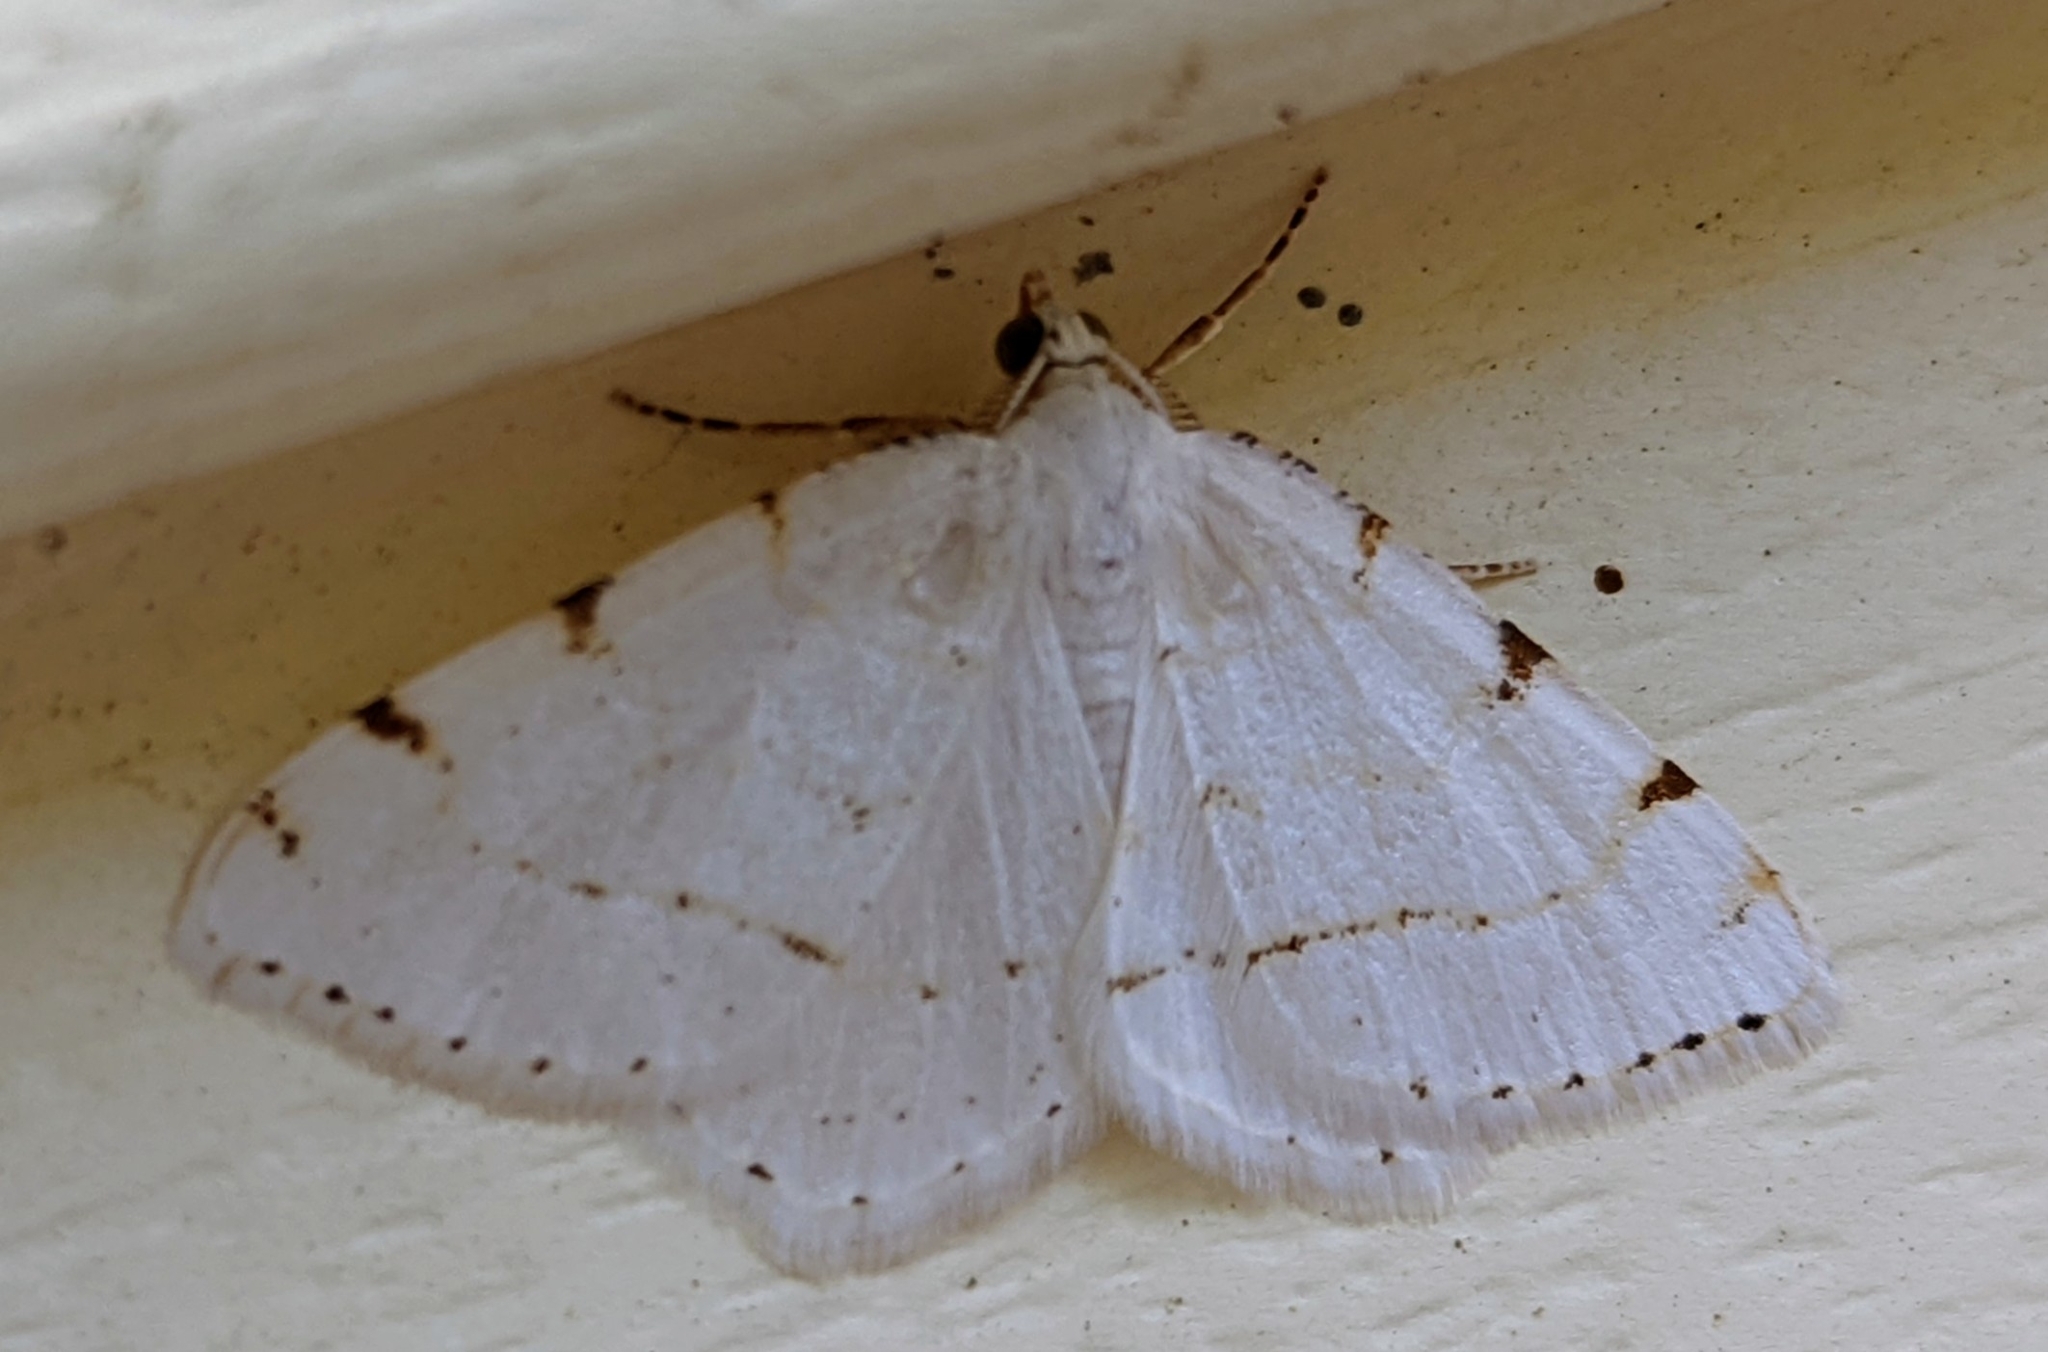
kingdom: Animalia
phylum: Arthropoda
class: Insecta
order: Lepidoptera
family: Geometridae
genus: Macaria
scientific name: Macaria pustularia
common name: Lesser maple spanworm moth
